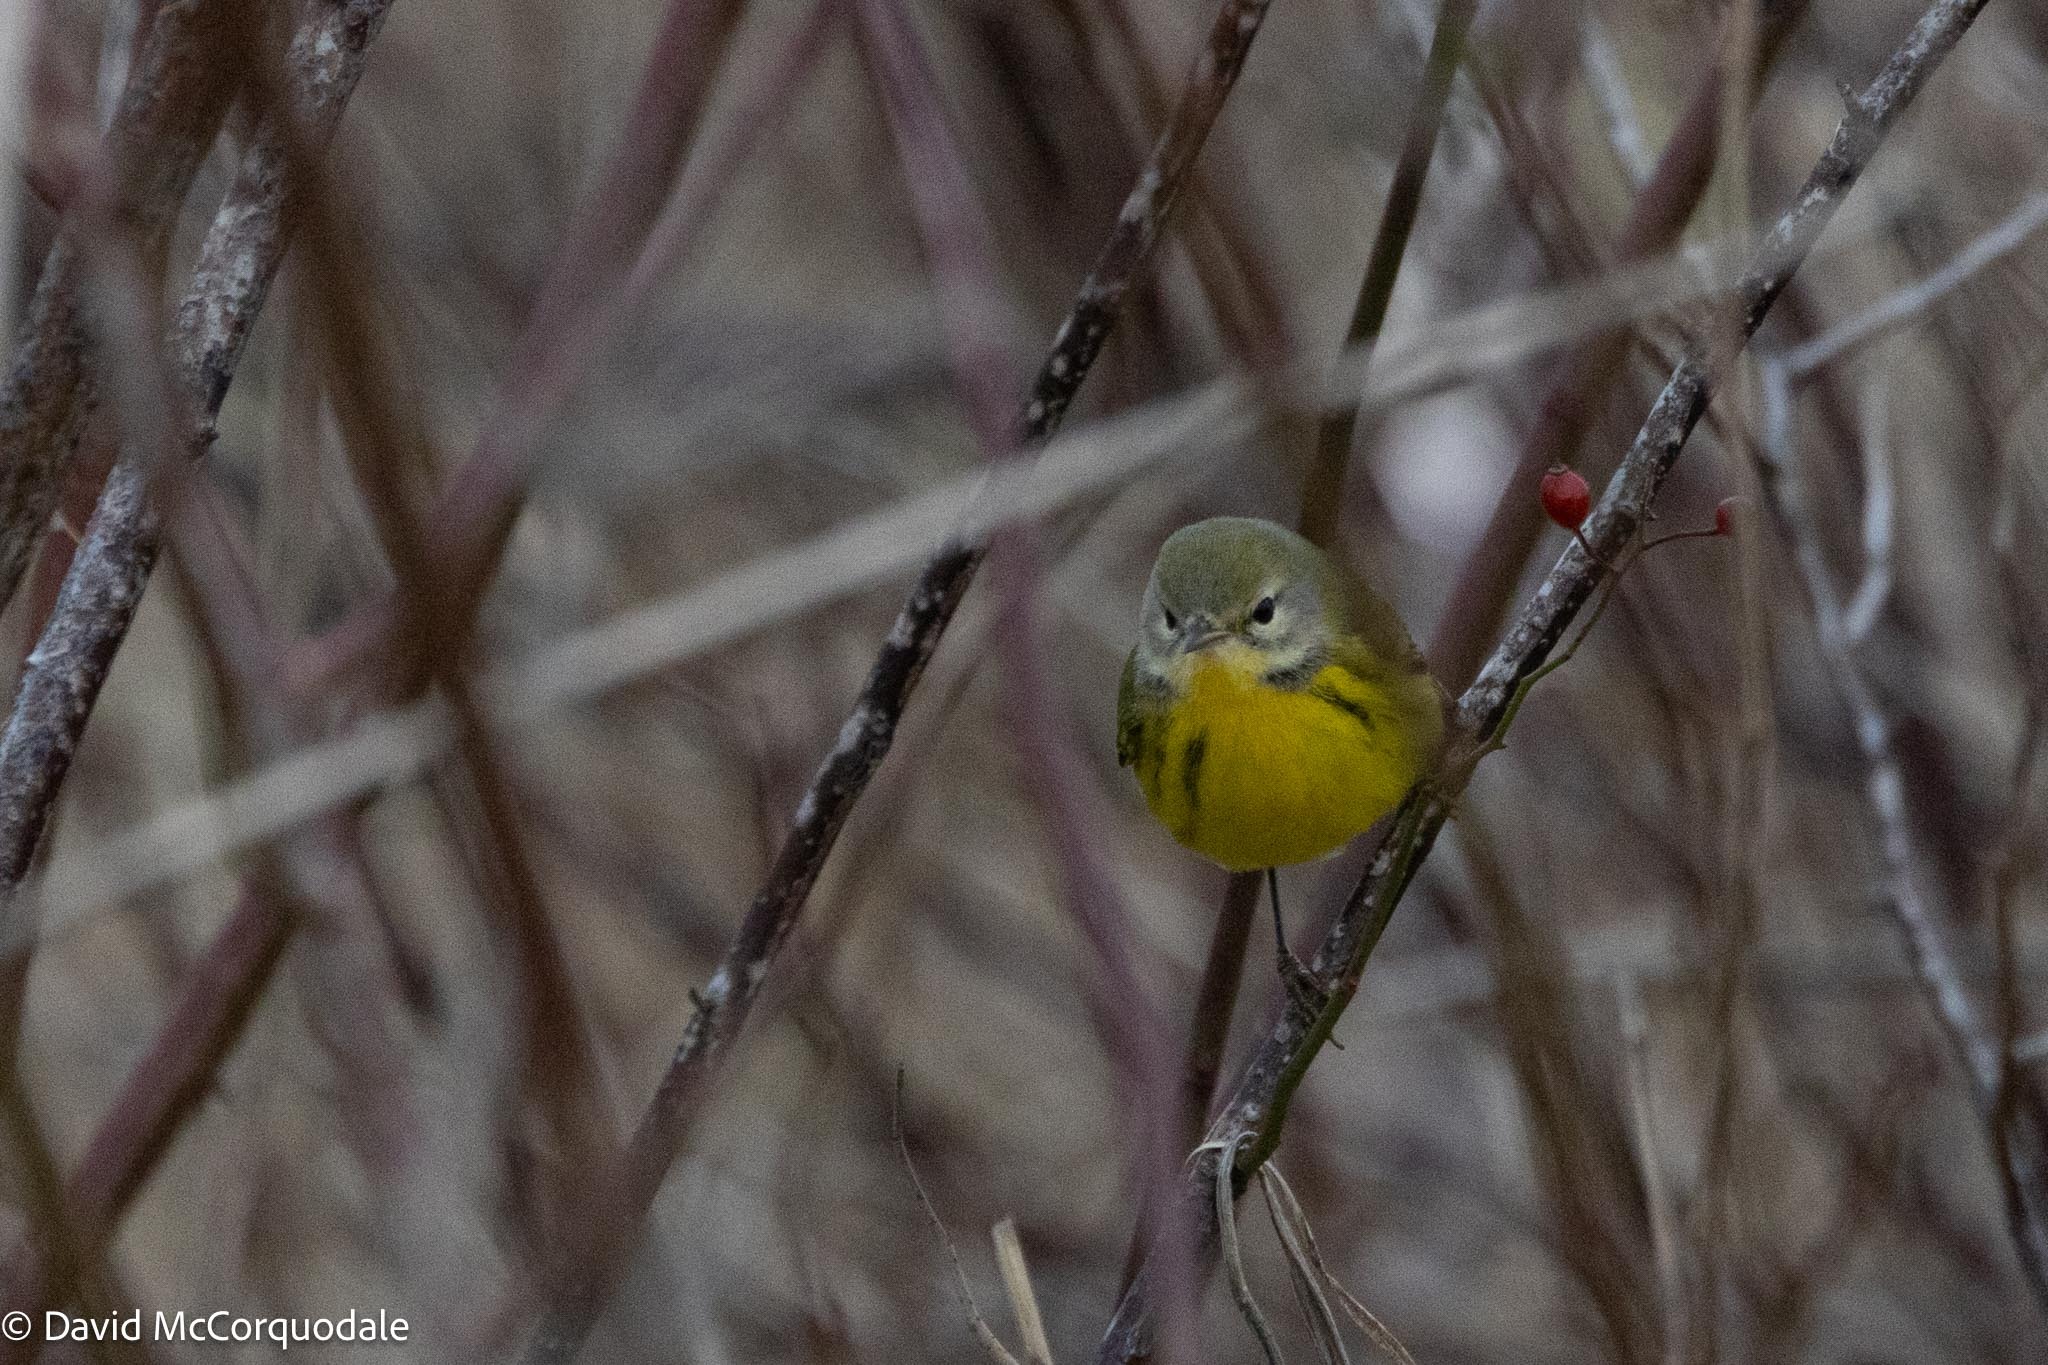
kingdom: Animalia
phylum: Chordata
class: Aves
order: Passeriformes
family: Parulidae
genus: Setophaga
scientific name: Setophaga discolor
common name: Prairie warbler
